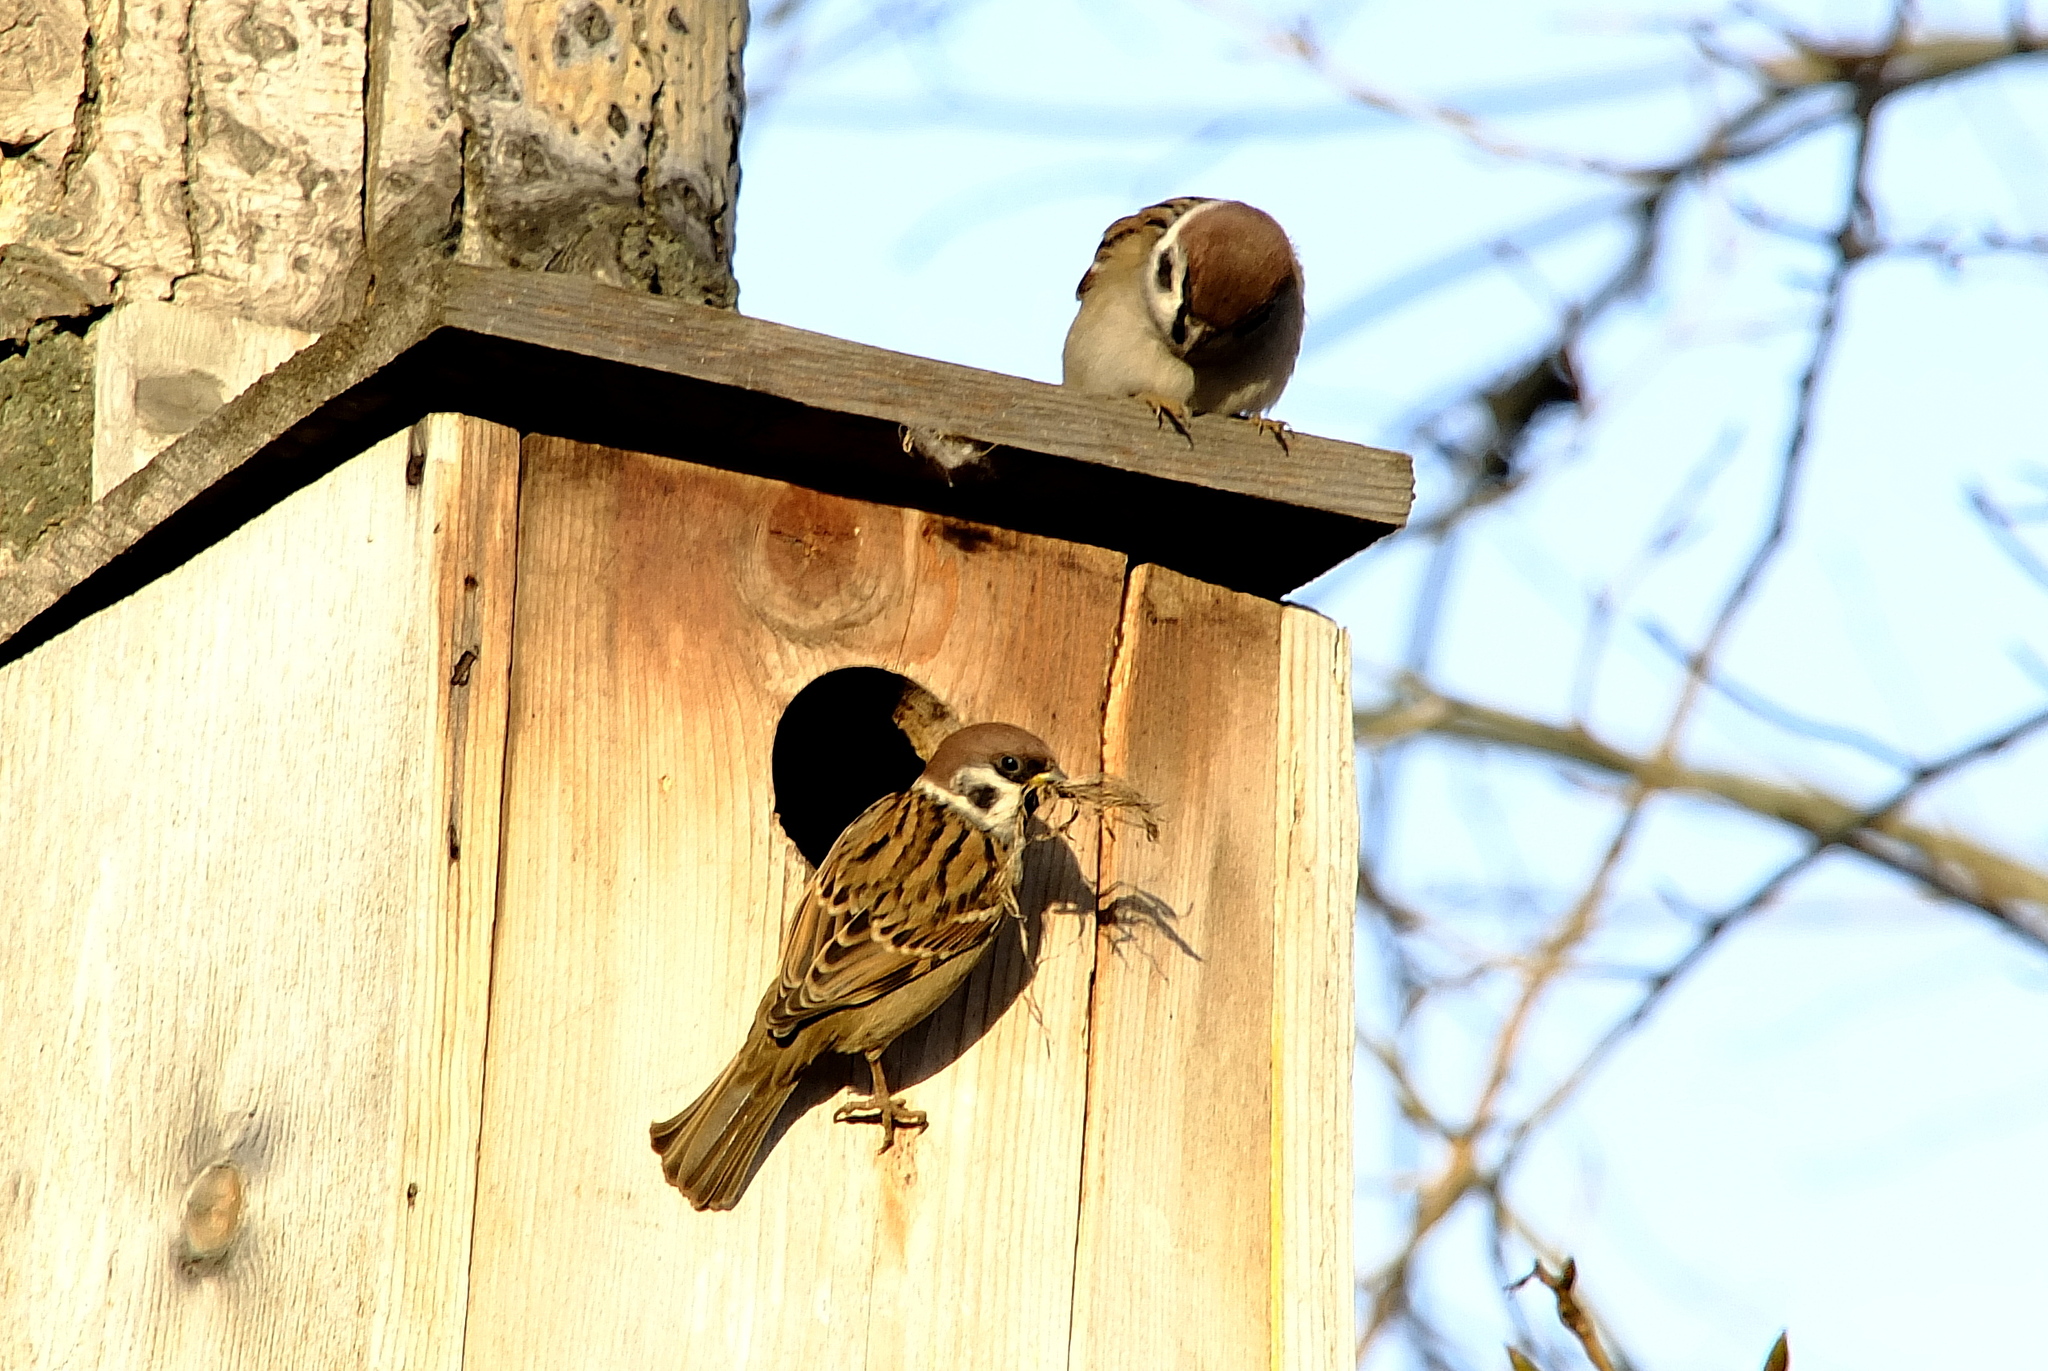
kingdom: Animalia
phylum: Chordata
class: Aves
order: Passeriformes
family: Passeridae
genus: Passer
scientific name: Passer montanus
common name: Eurasian tree sparrow
